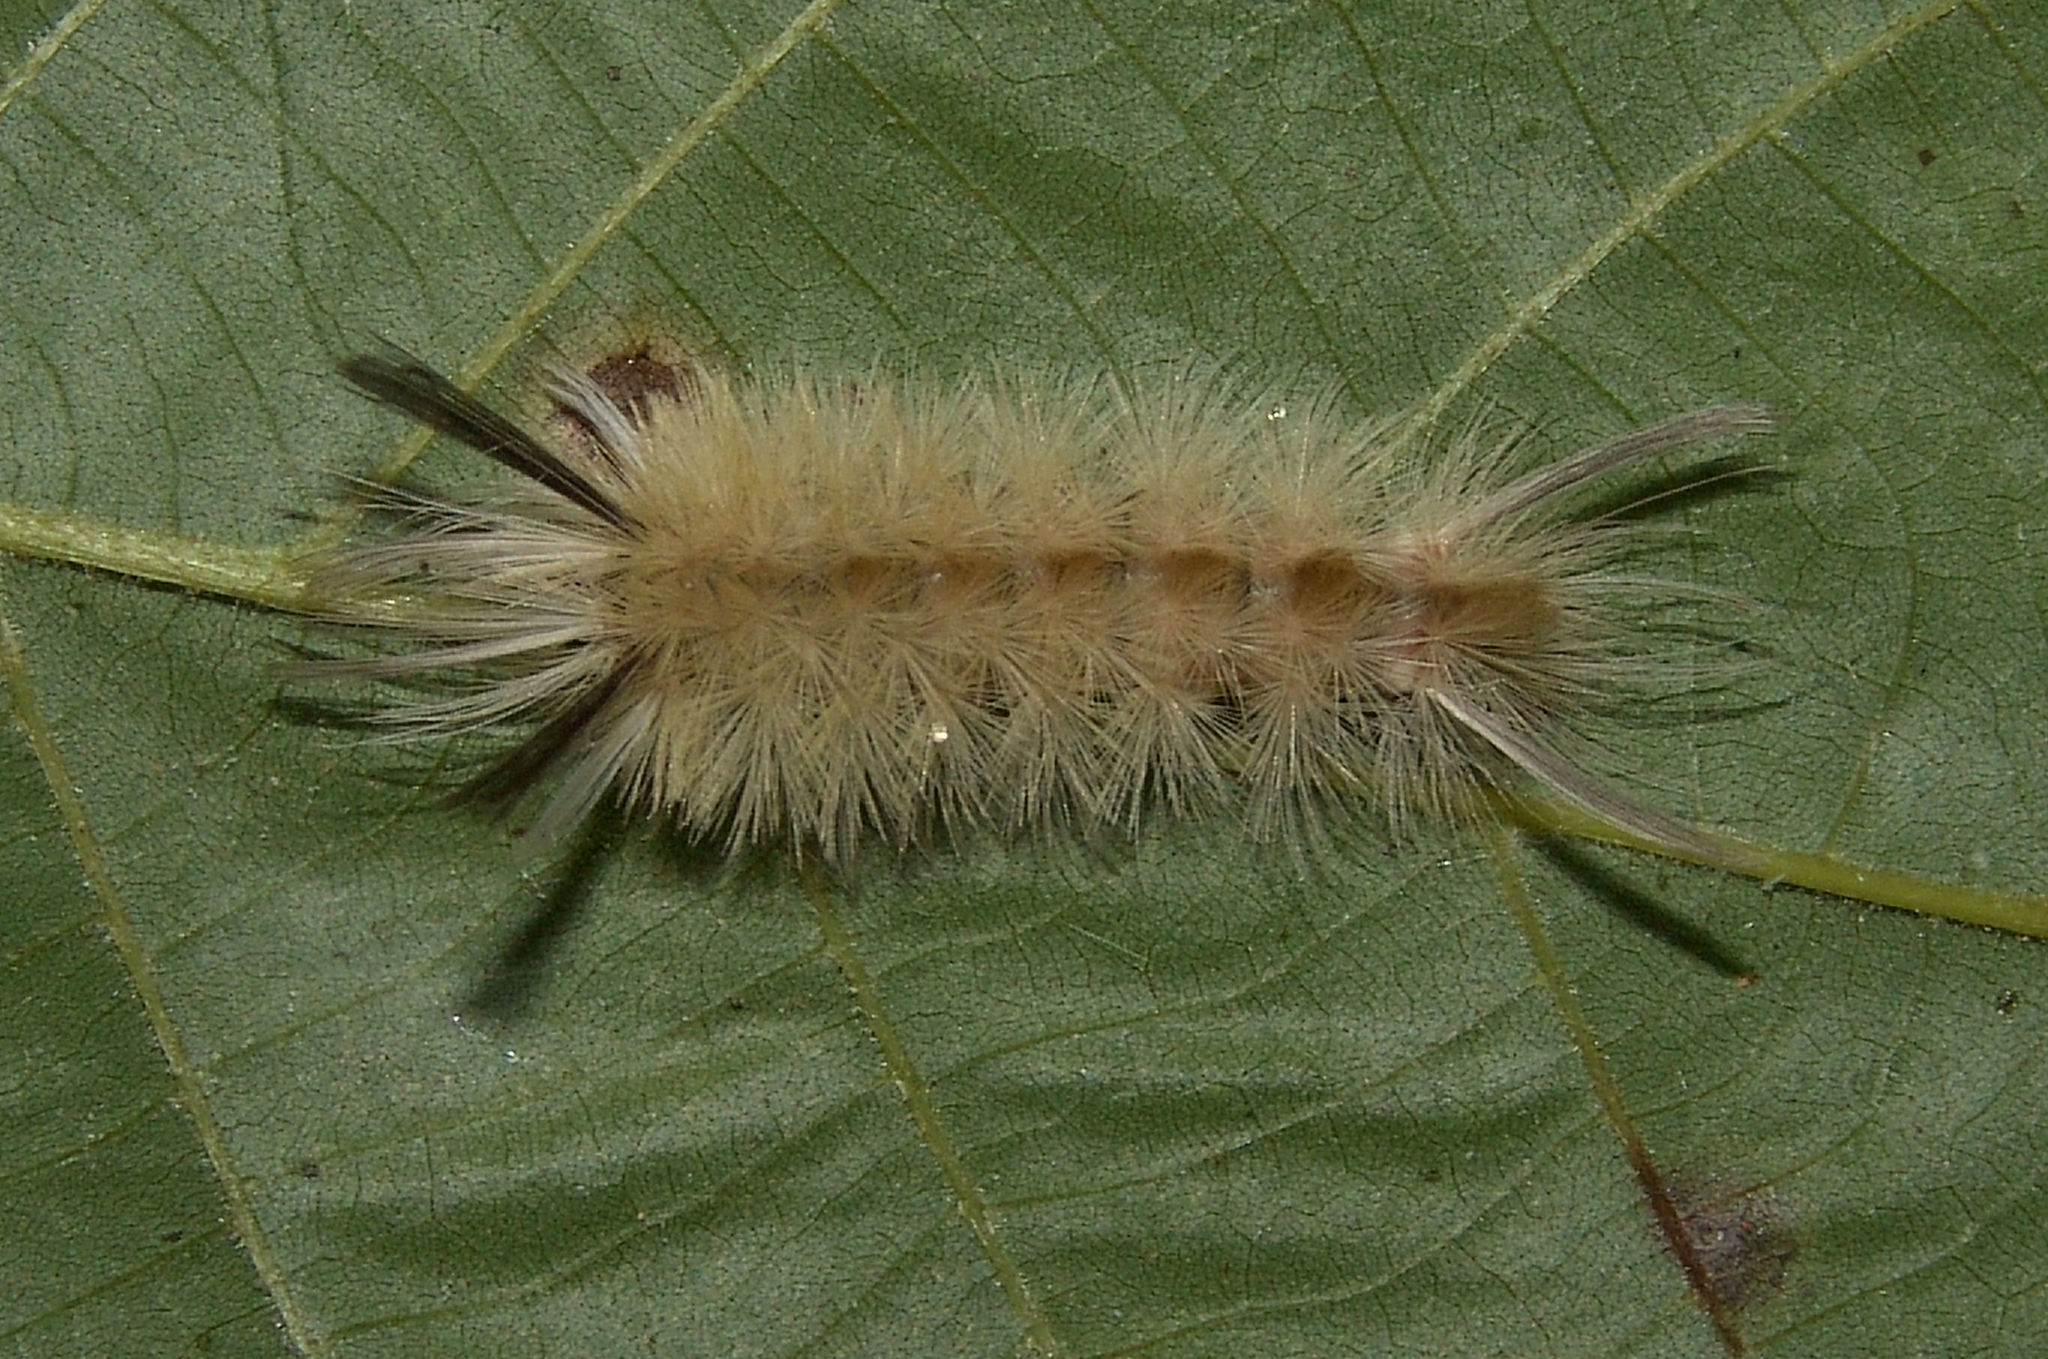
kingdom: Animalia
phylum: Arthropoda
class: Insecta
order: Lepidoptera
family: Erebidae
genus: Halysidota
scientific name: Halysidota tessellaris
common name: Banded tussock moth
